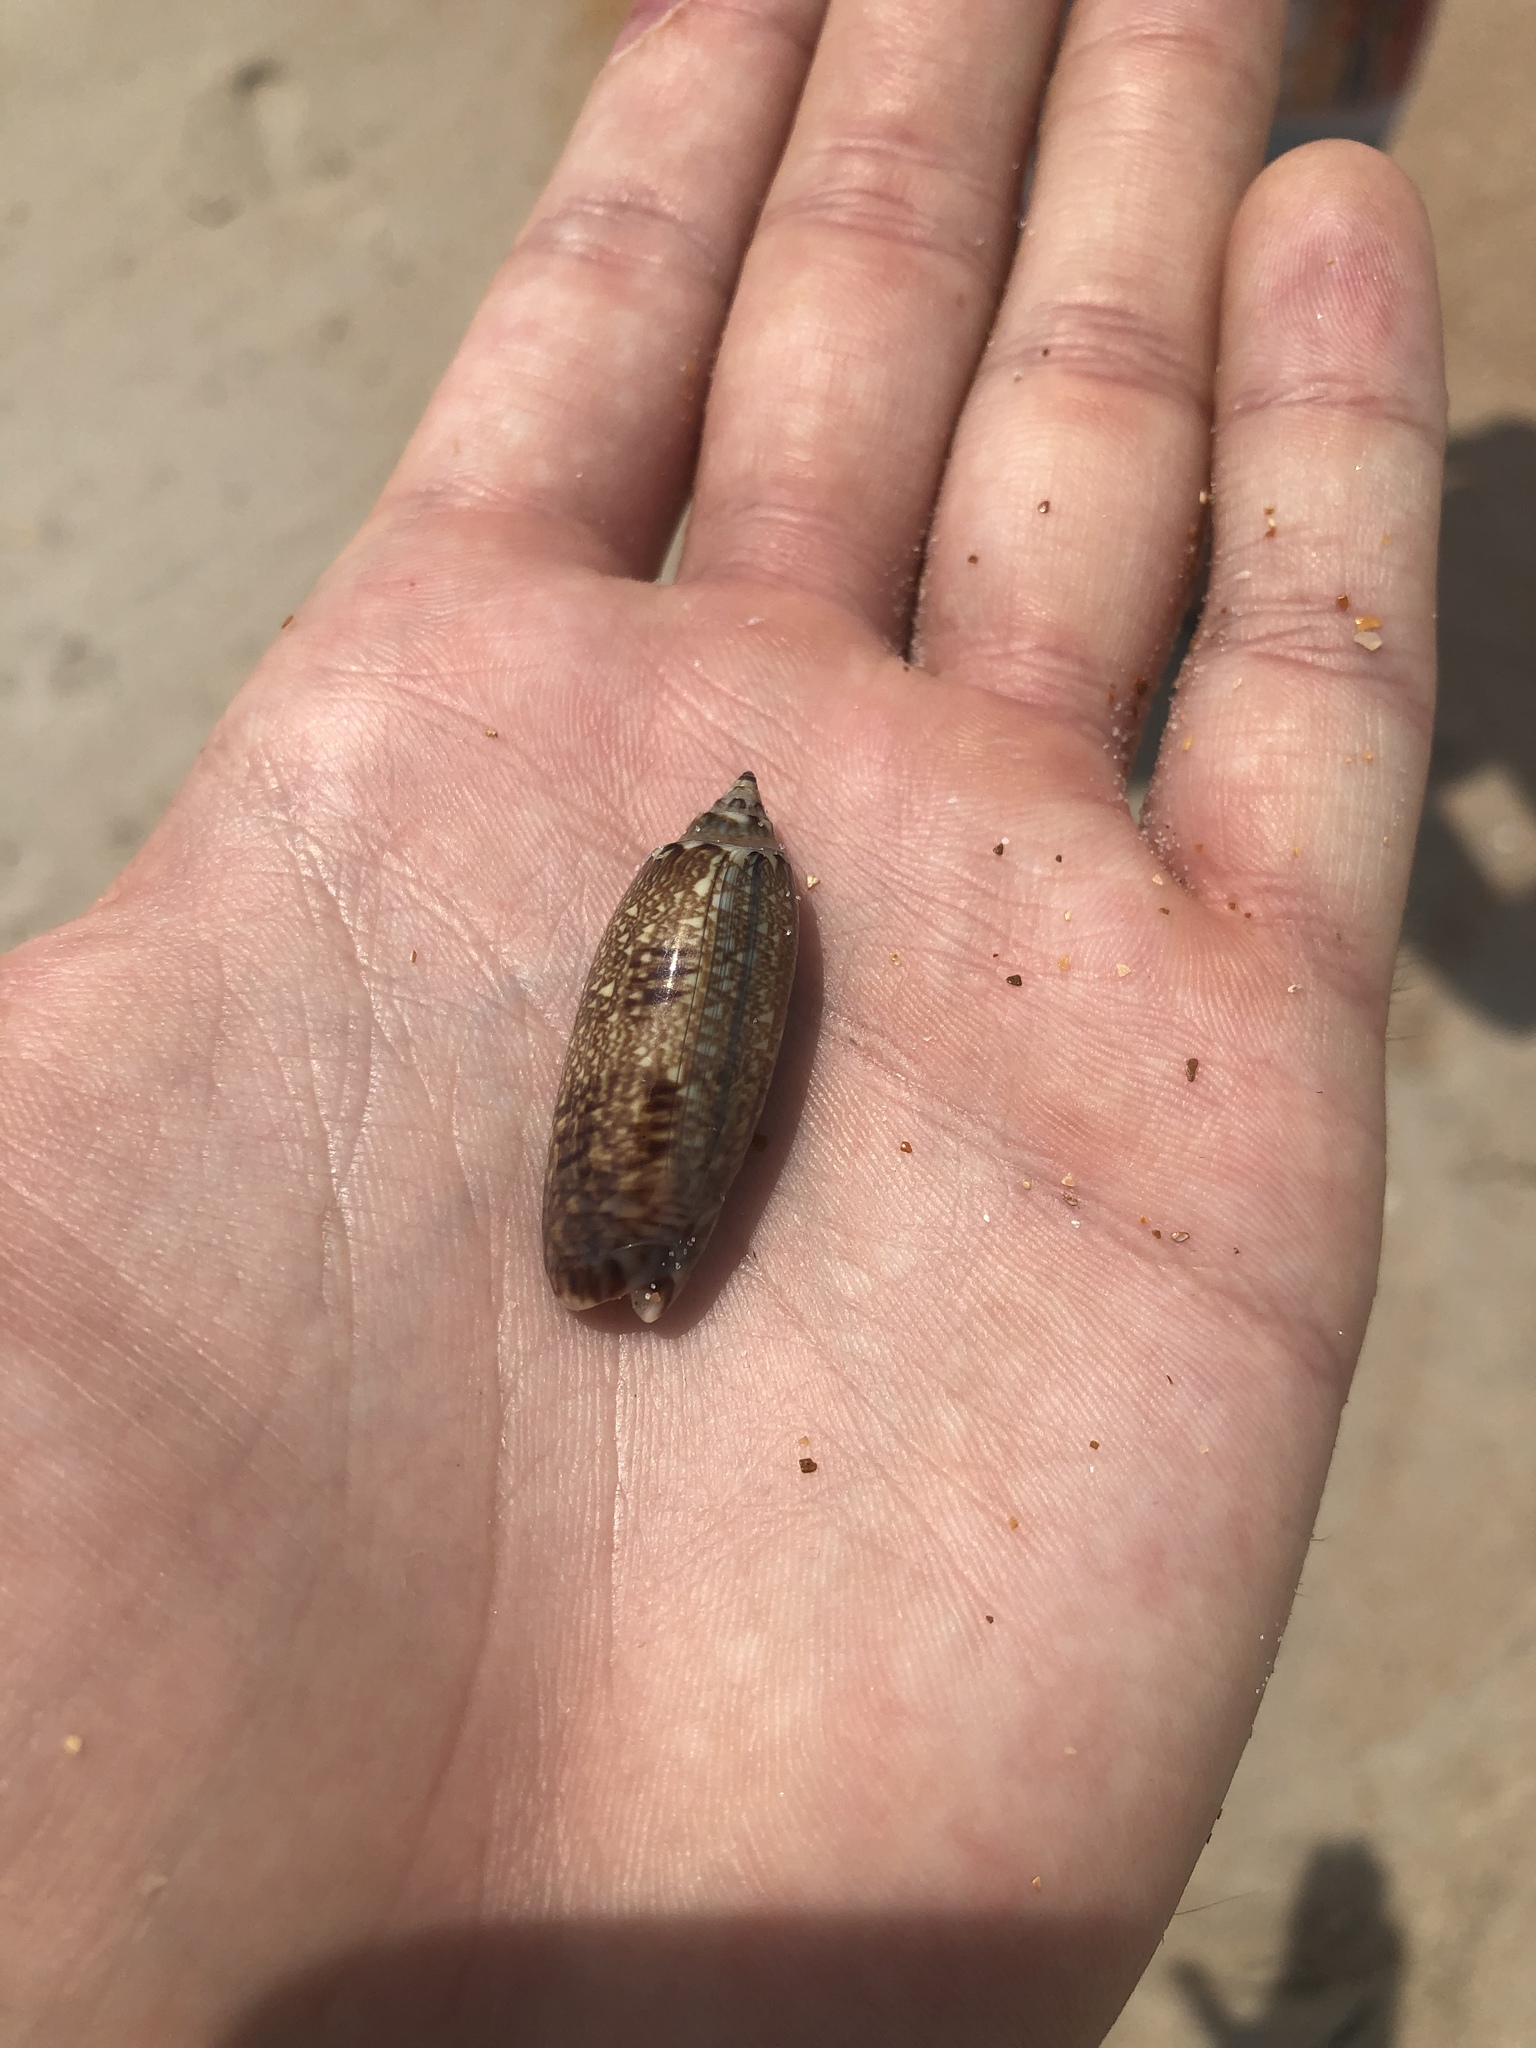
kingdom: Animalia
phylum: Mollusca
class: Gastropoda
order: Neogastropoda
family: Olividae
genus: Oliva
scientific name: Oliva sayana
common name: Lettered olive
